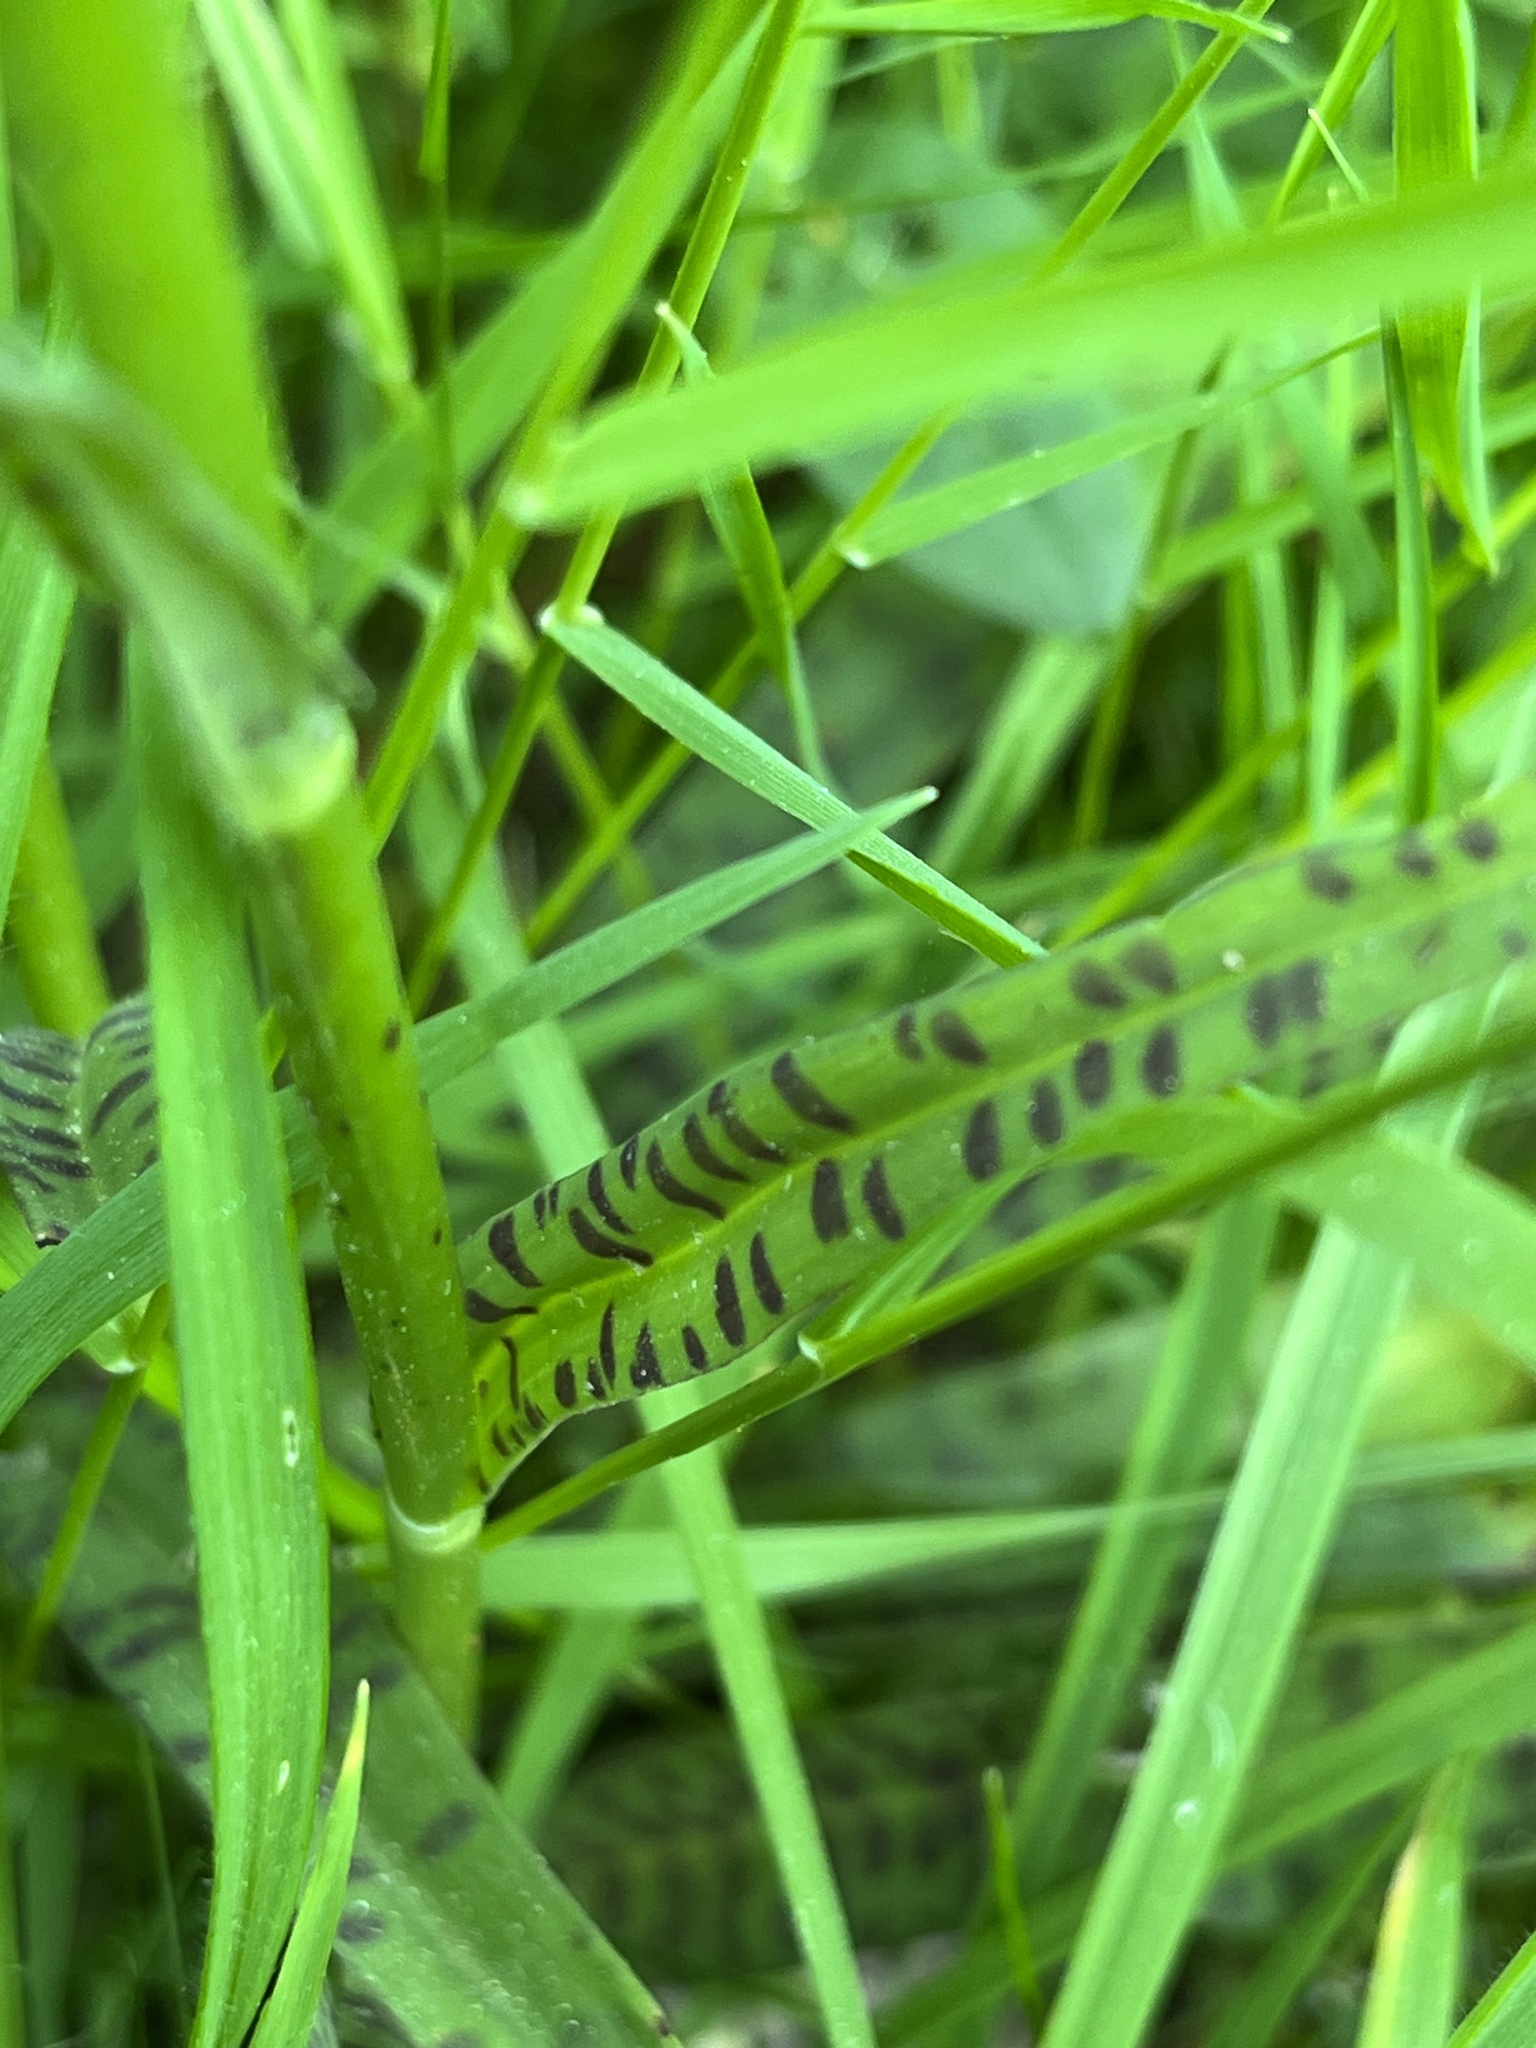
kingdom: Plantae
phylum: Tracheophyta
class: Liliopsida
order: Asparagales
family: Orchidaceae
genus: Dactylorhiza
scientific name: Dactylorhiza maculata
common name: Heath spotted-orchid
